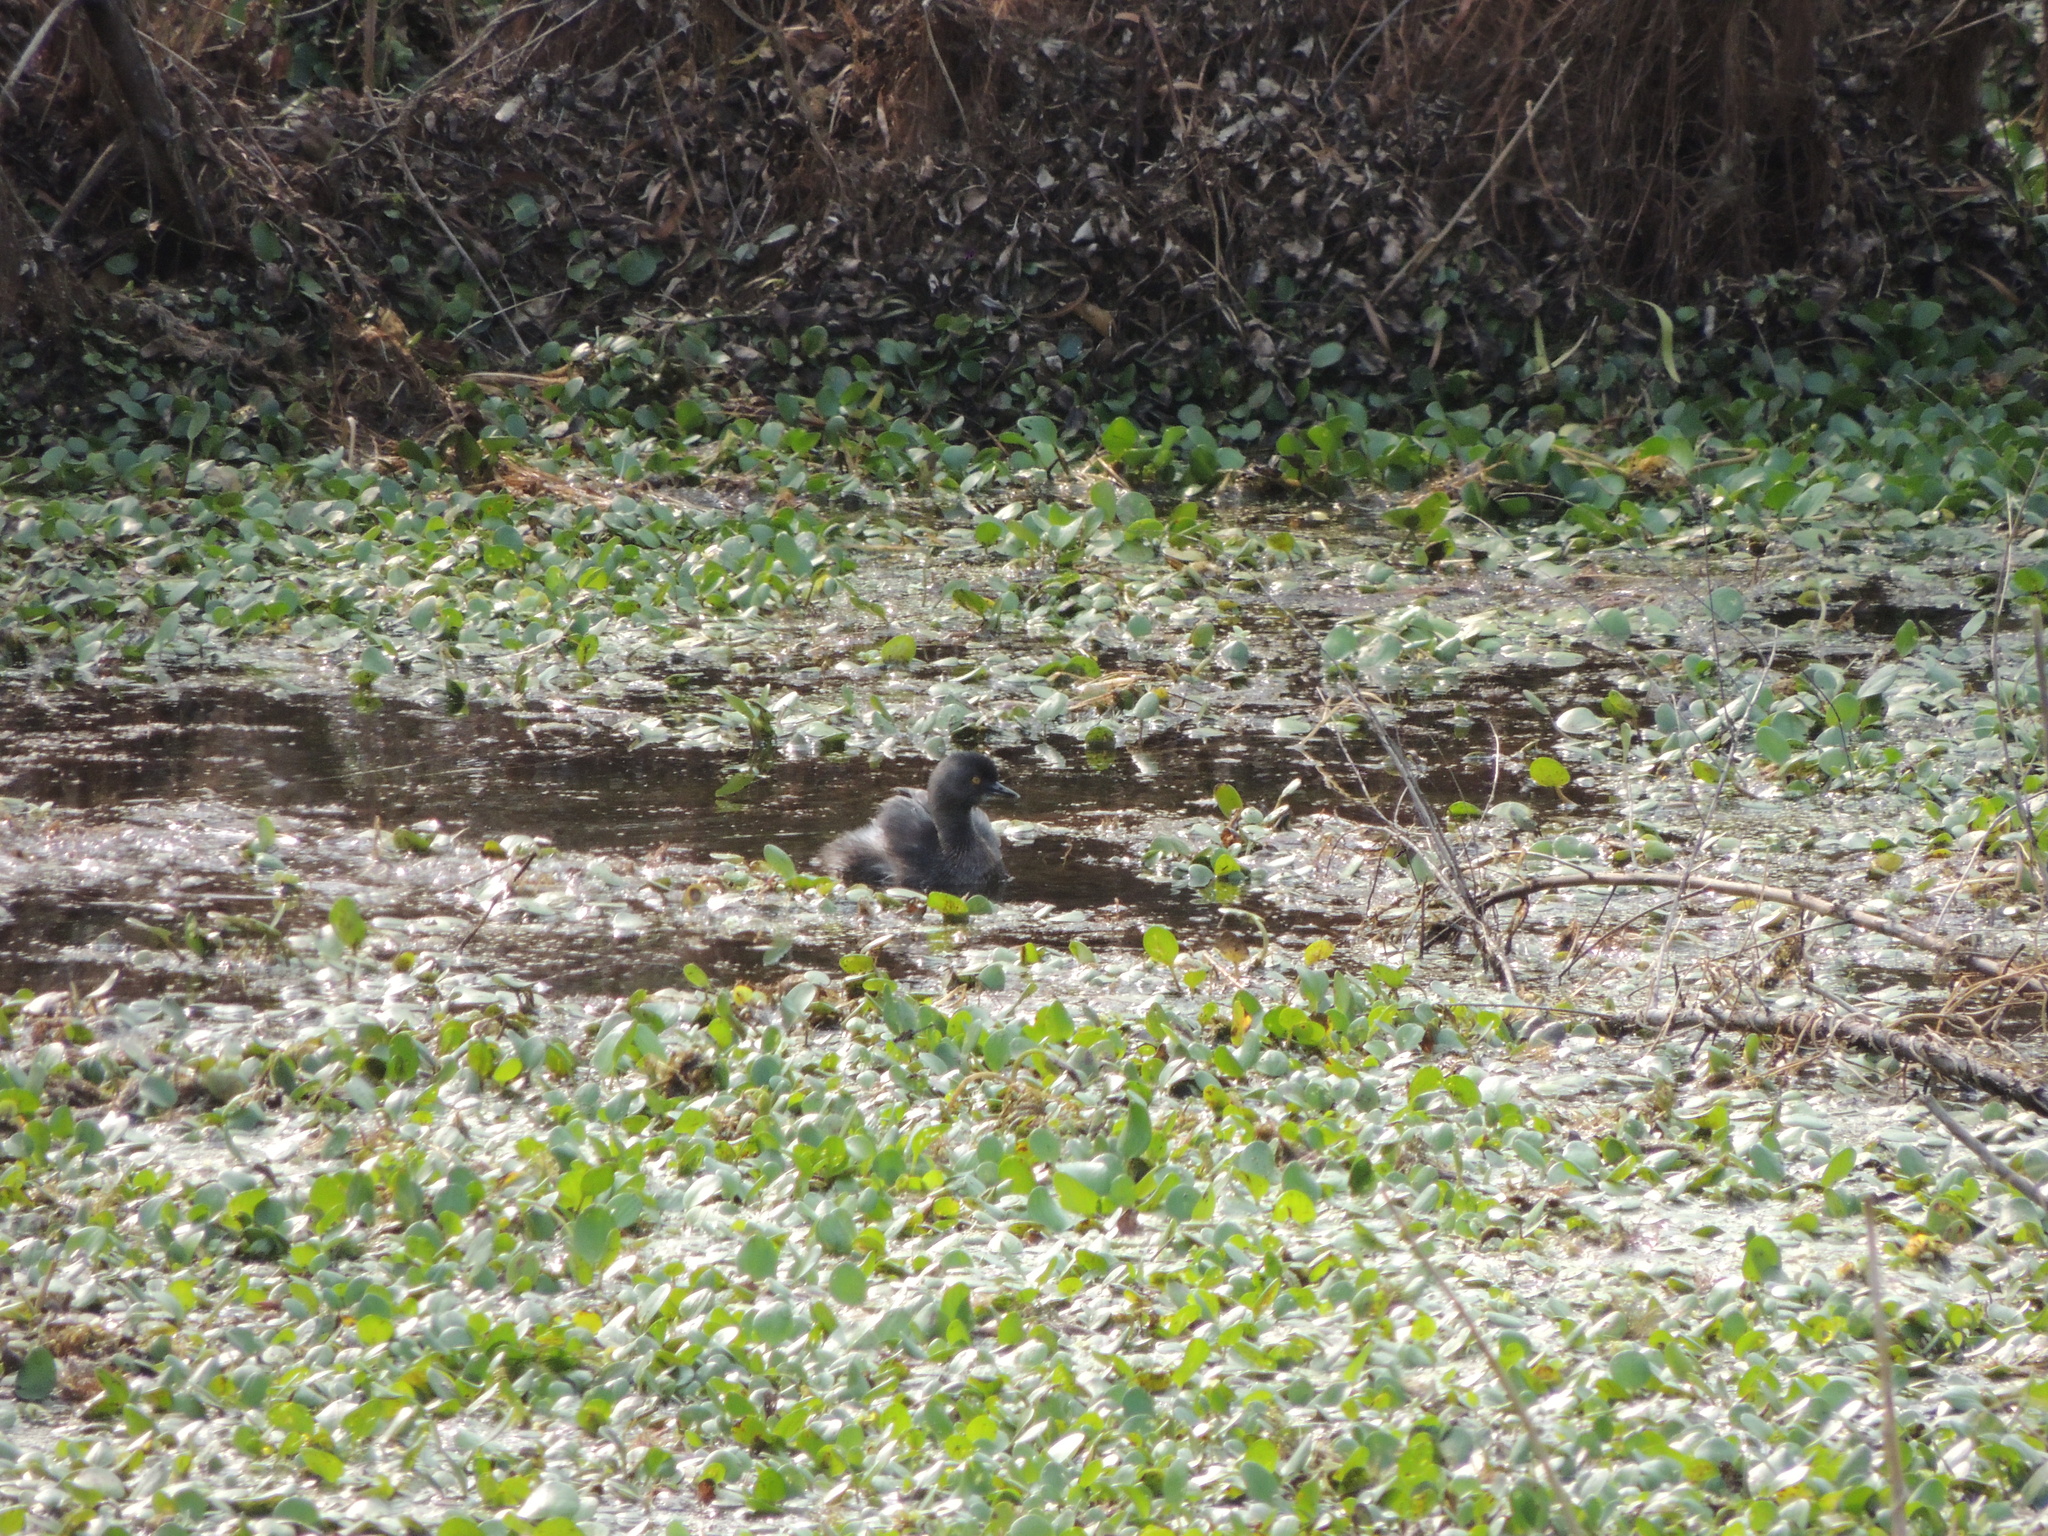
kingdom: Animalia
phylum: Chordata
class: Aves
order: Podicipediformes
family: Podicipedidae
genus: Tachybaptus
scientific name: Tachybaptus dominicus
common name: Least grebe
